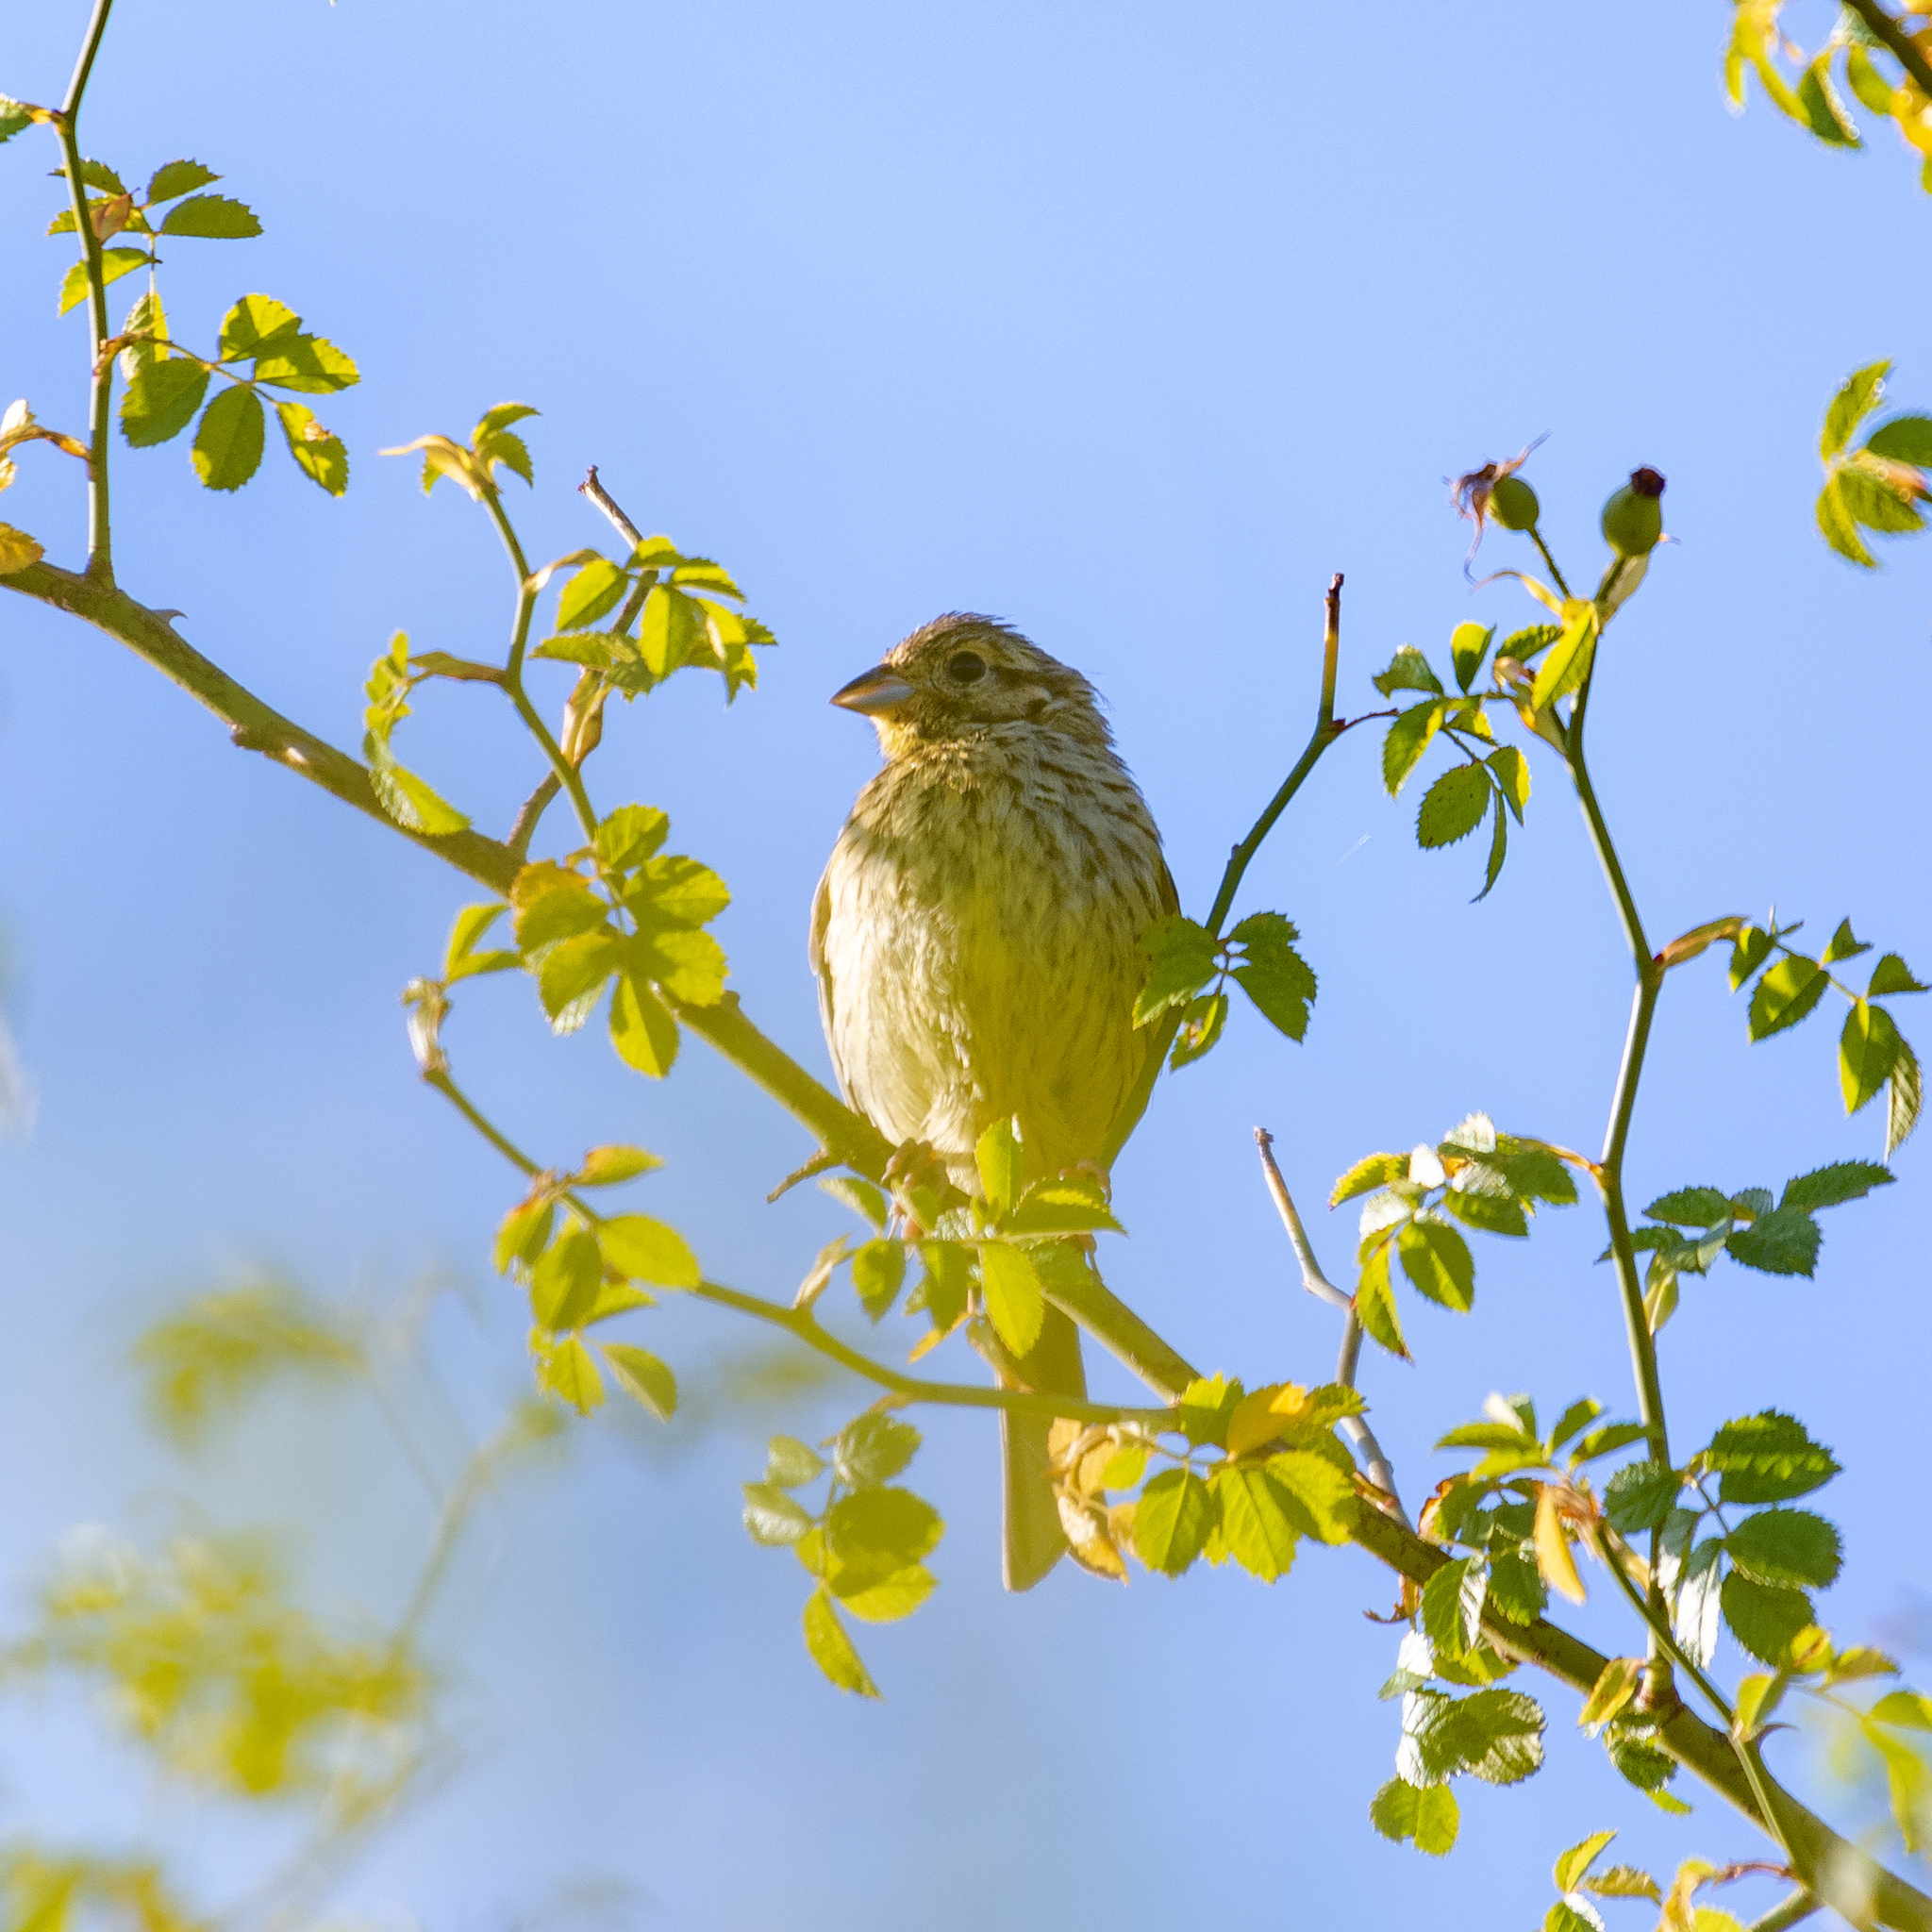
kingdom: Animalia
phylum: Chordata
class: Aves
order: Passeriformes
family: Emberizidae
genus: Emberiza
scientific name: Emberiza citrinella
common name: Yellowhammer
